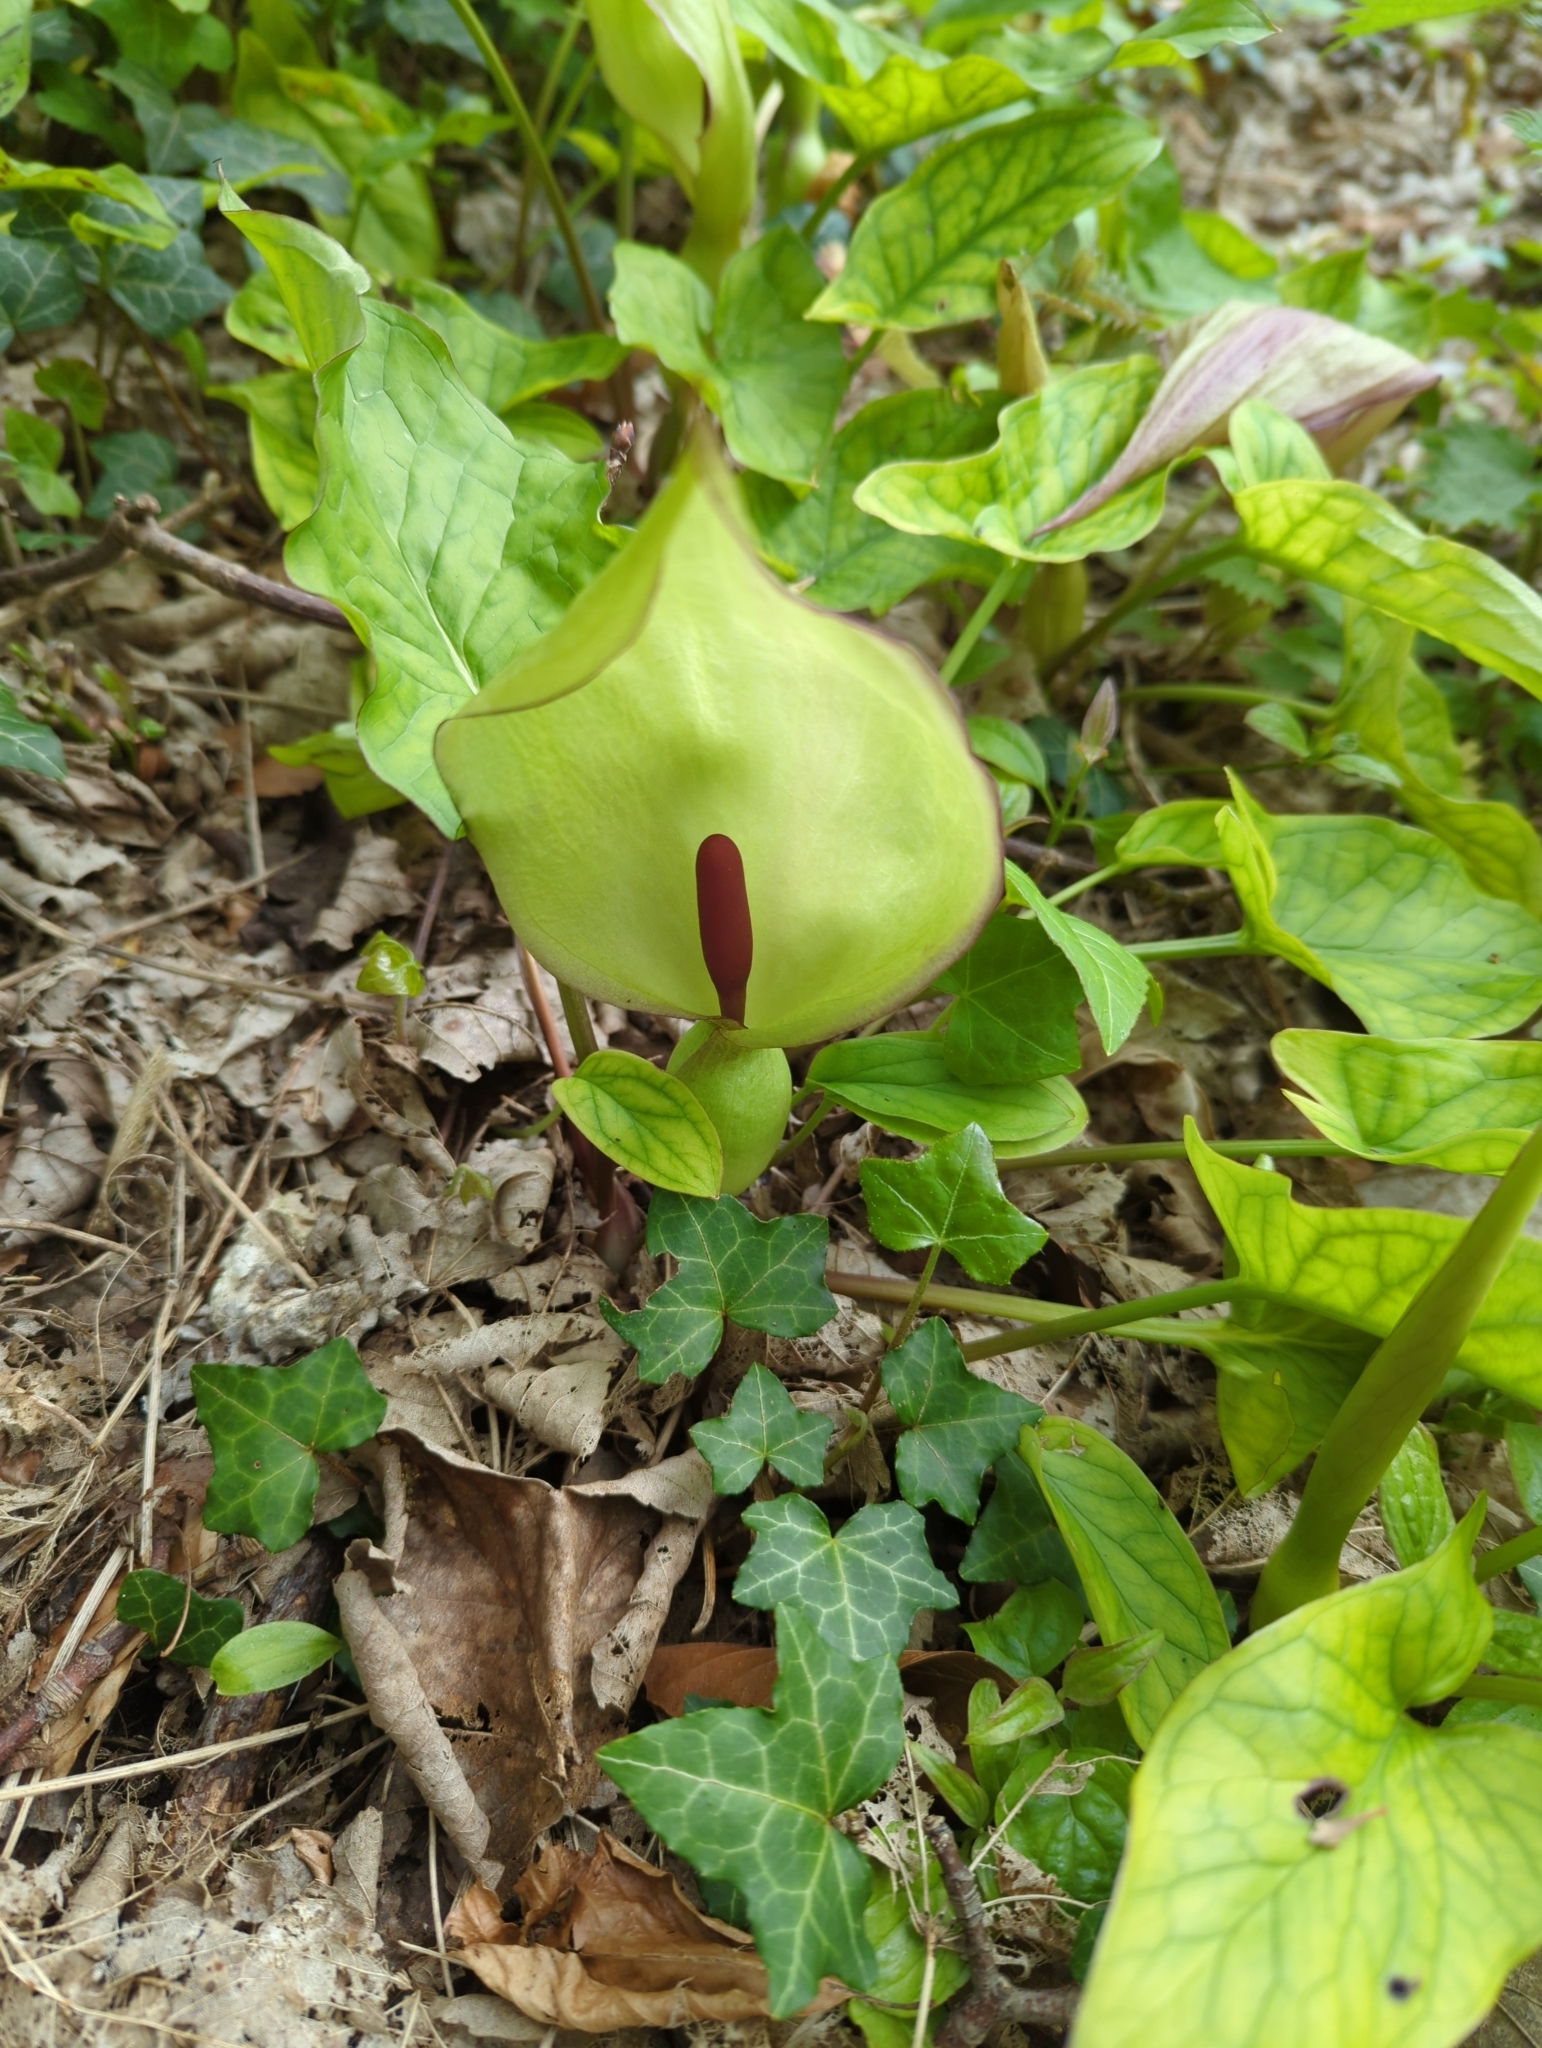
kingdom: Plantae
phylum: Tracheophyta
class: Liliopsida
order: Alismatales
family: Araceae
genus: Arum
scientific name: Arum maculatum
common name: Lords-and-ladies
